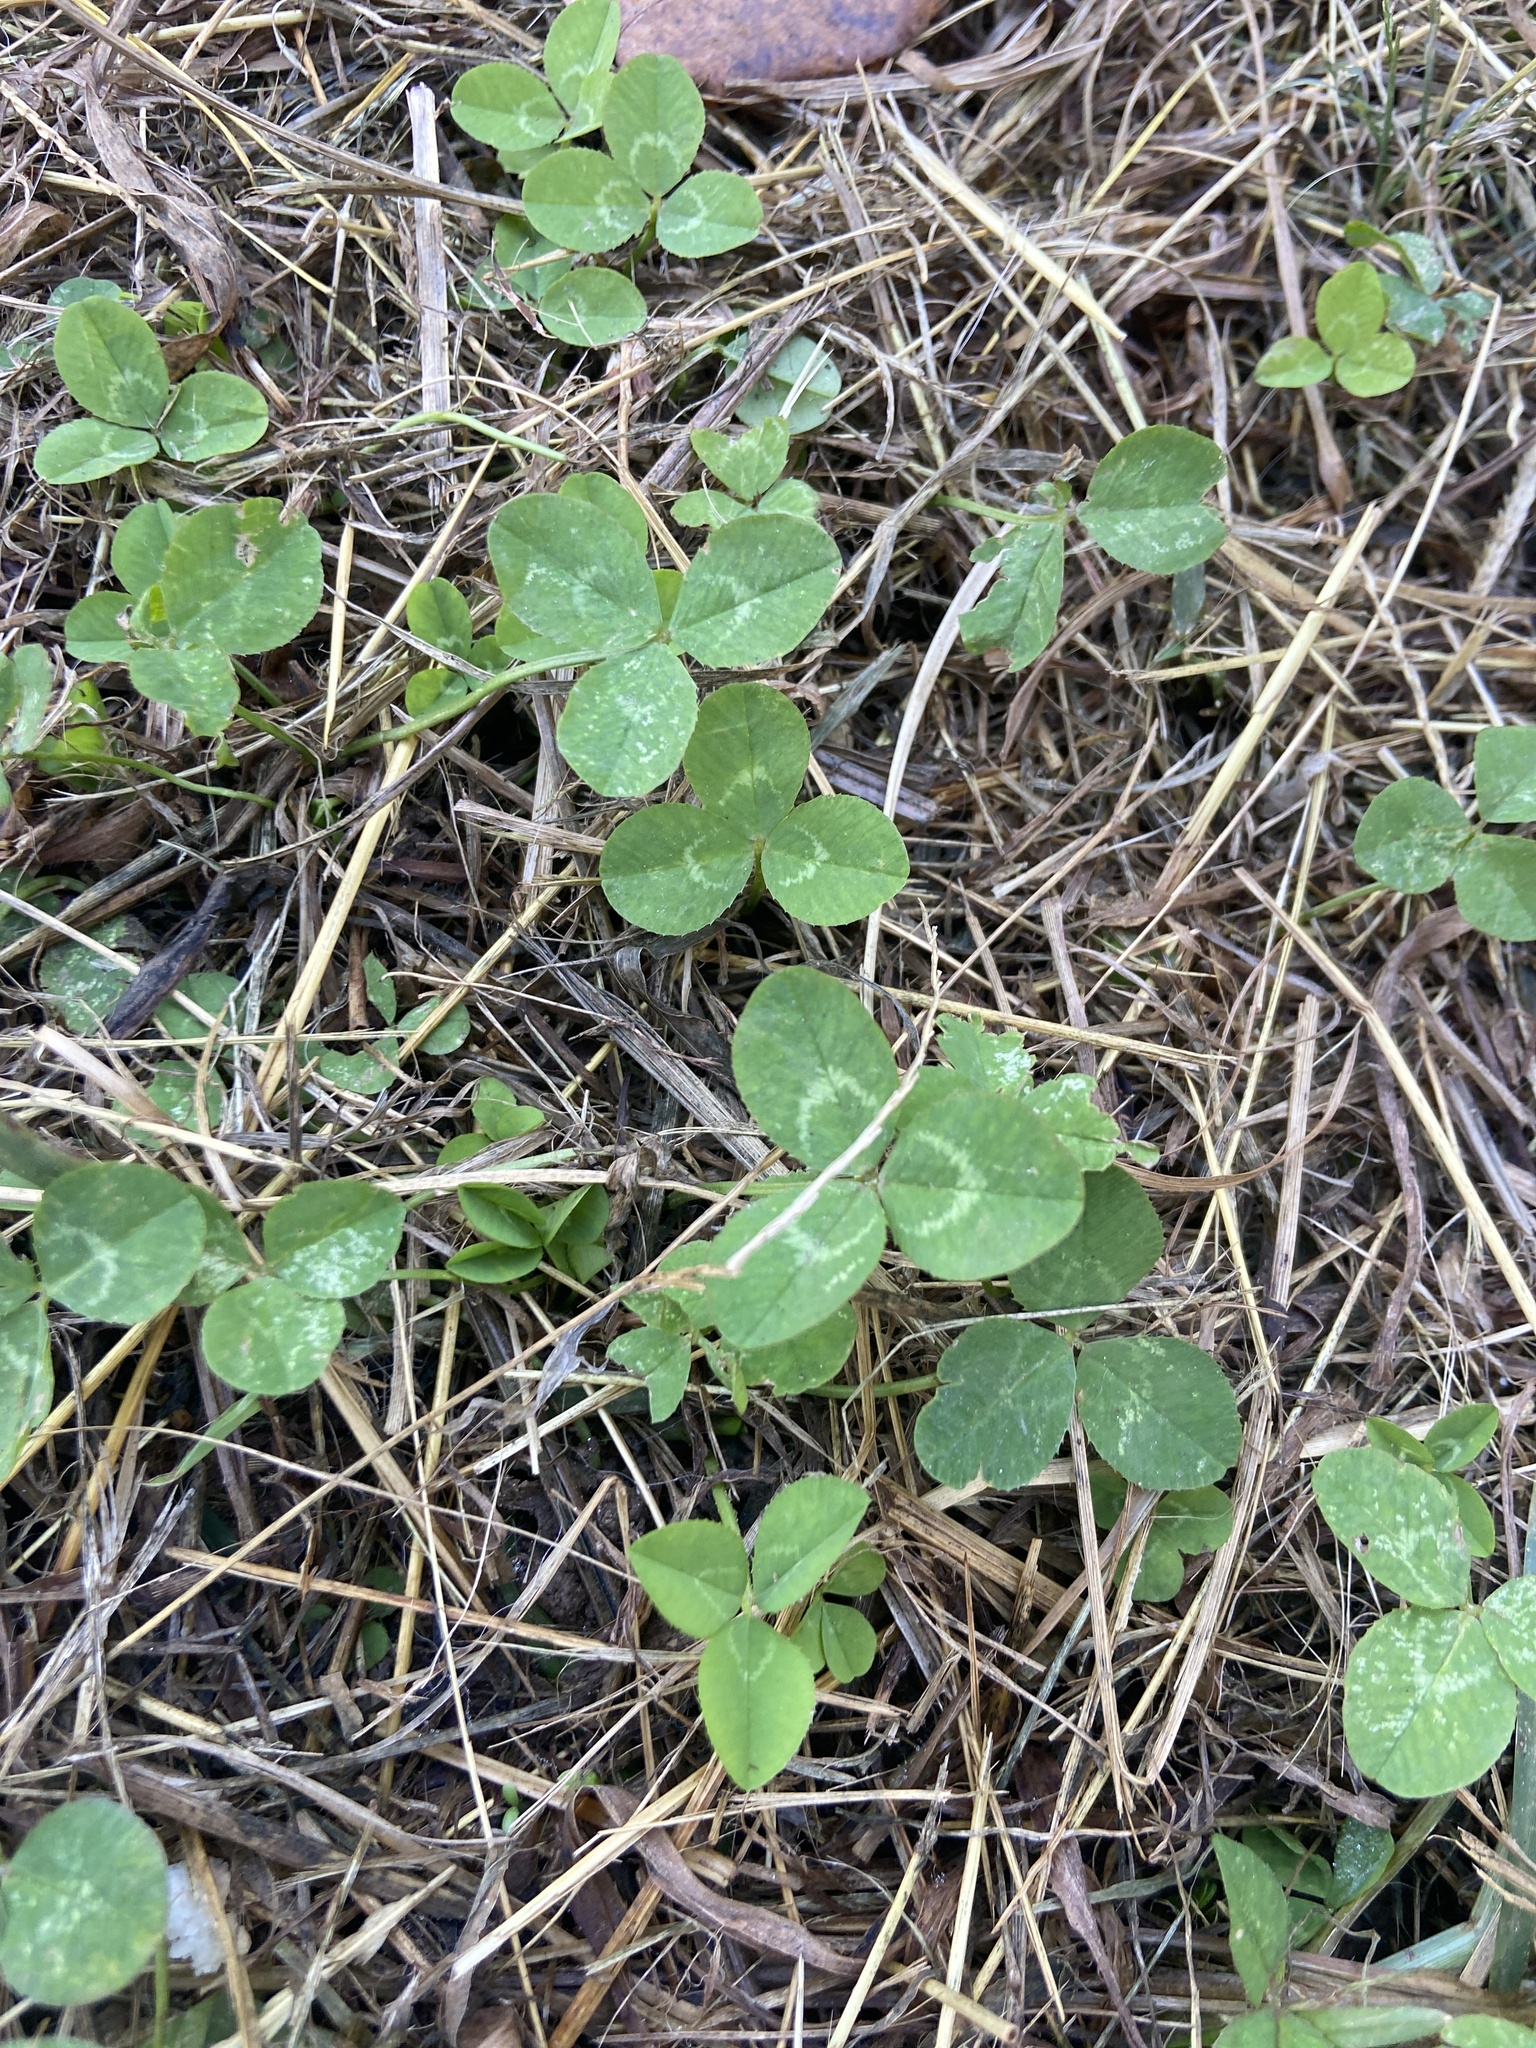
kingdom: Plantae
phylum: Tracheophyta
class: Magnoliopsida
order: Fabales
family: Fabaceae
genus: Trifolium
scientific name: Trifolium repens
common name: White clover
